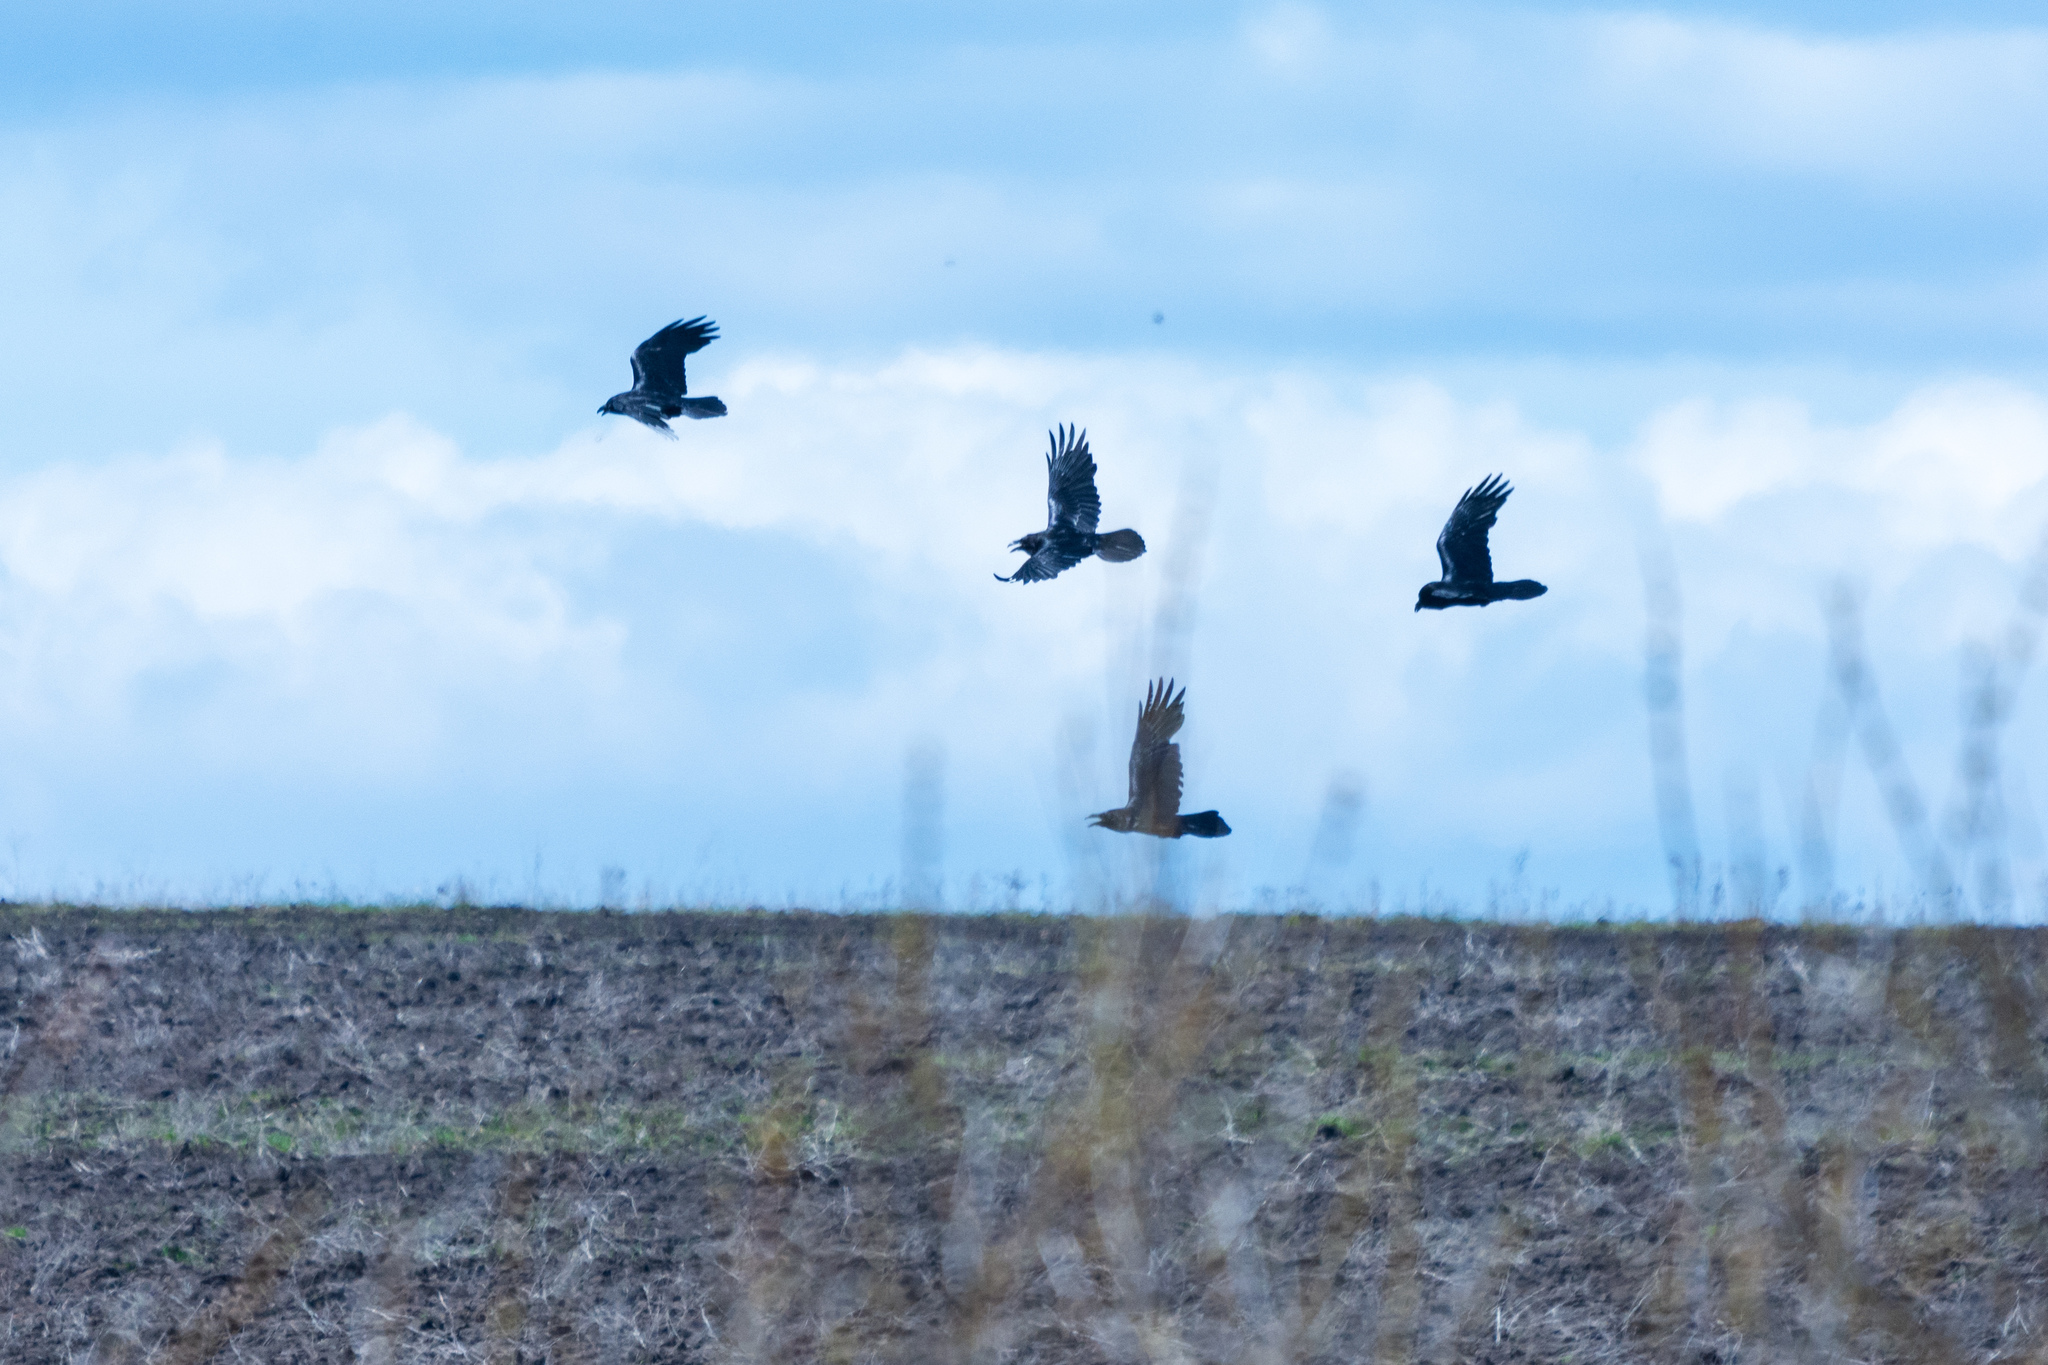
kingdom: Animalia
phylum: Chordata
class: Aves
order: Passeriformes
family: Corvidae
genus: Corvus
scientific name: Corvus corax
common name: Common raven
